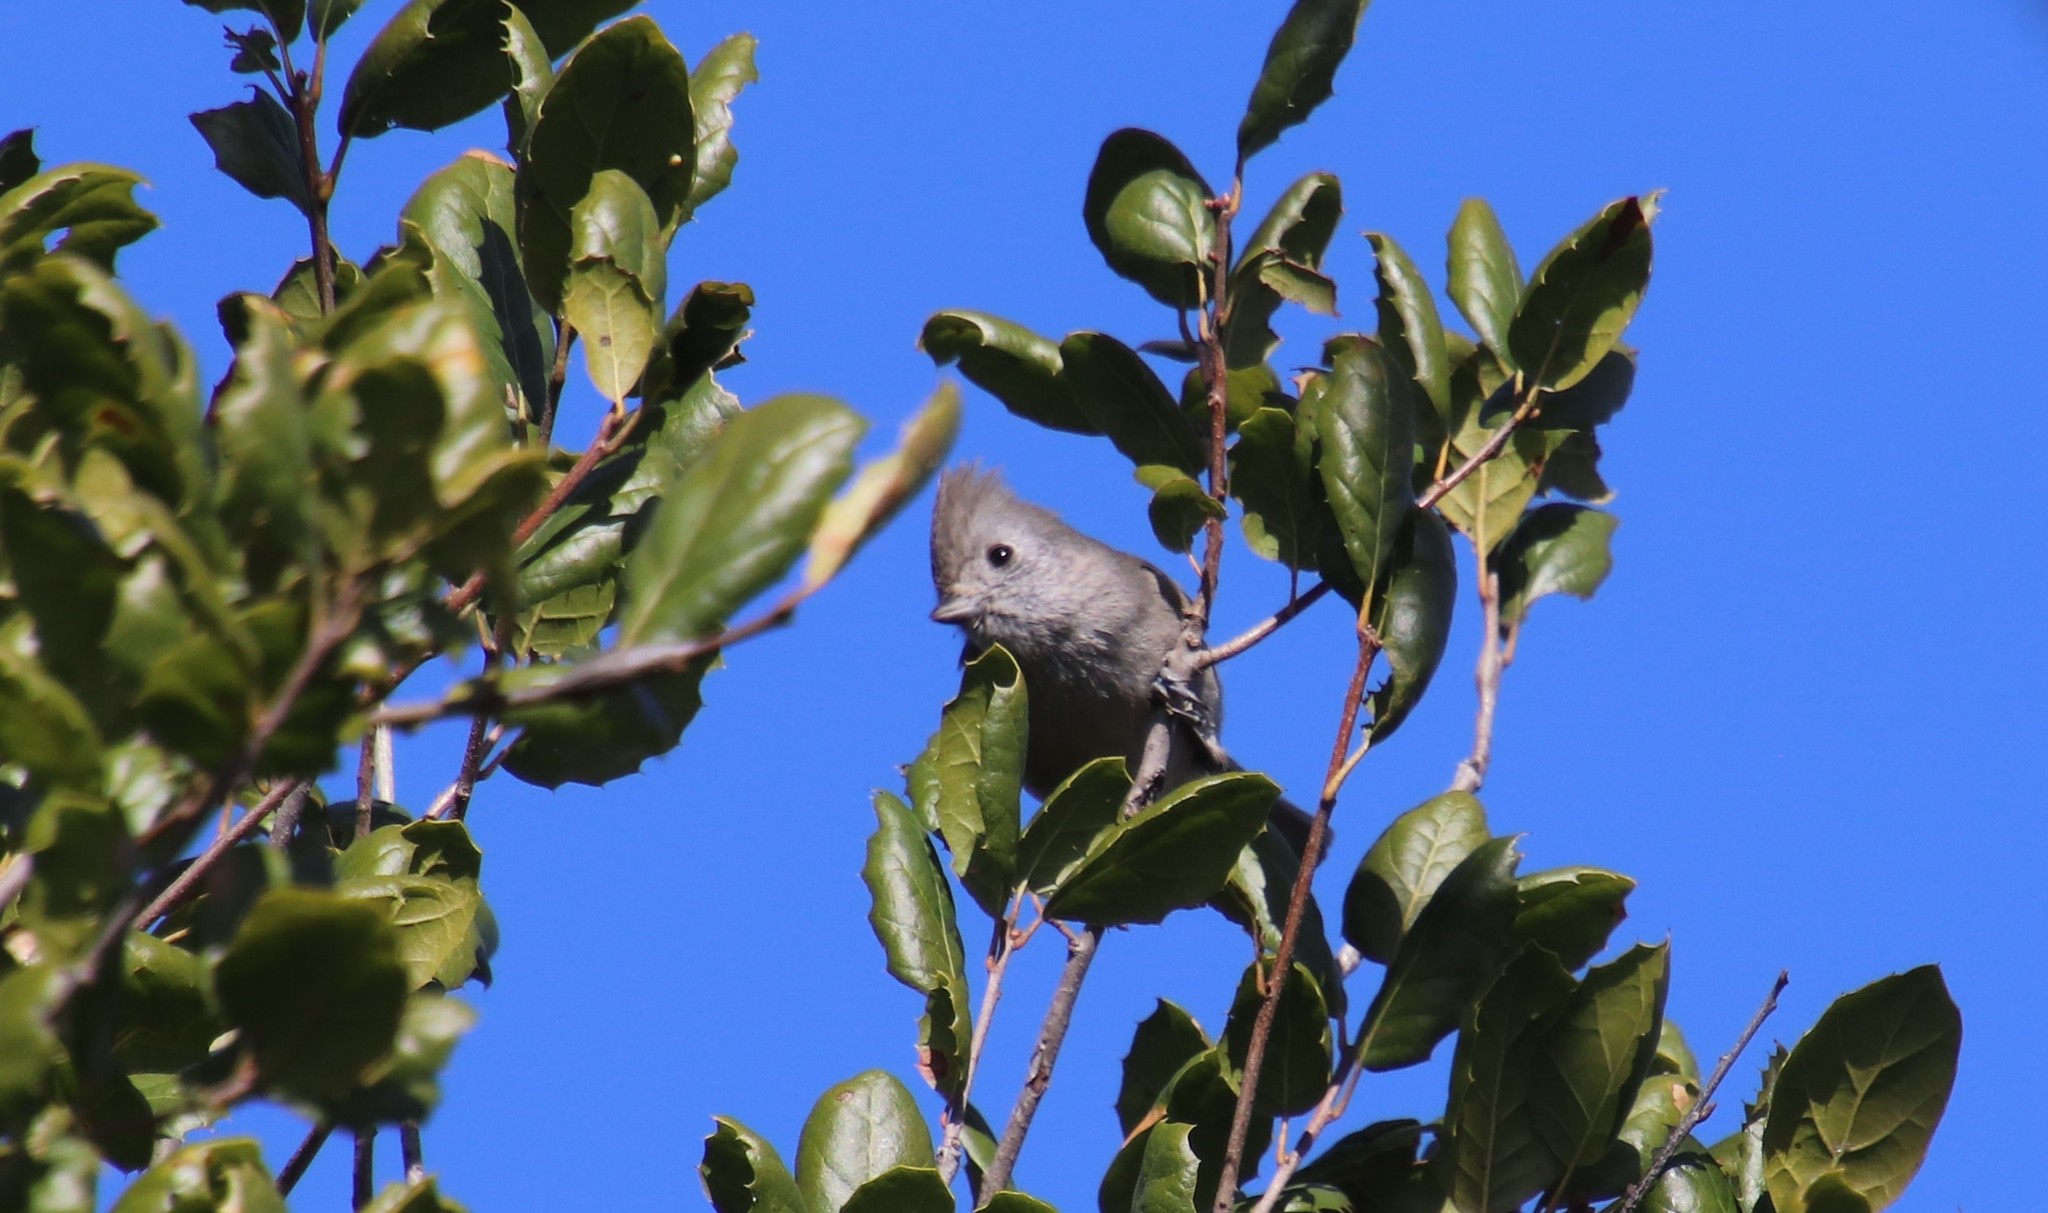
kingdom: Animalia
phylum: Chordata
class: Aves
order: Passeriformes
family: Paridae
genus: Baeolophus
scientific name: Baeolophus inornatus
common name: Oak titmouse
